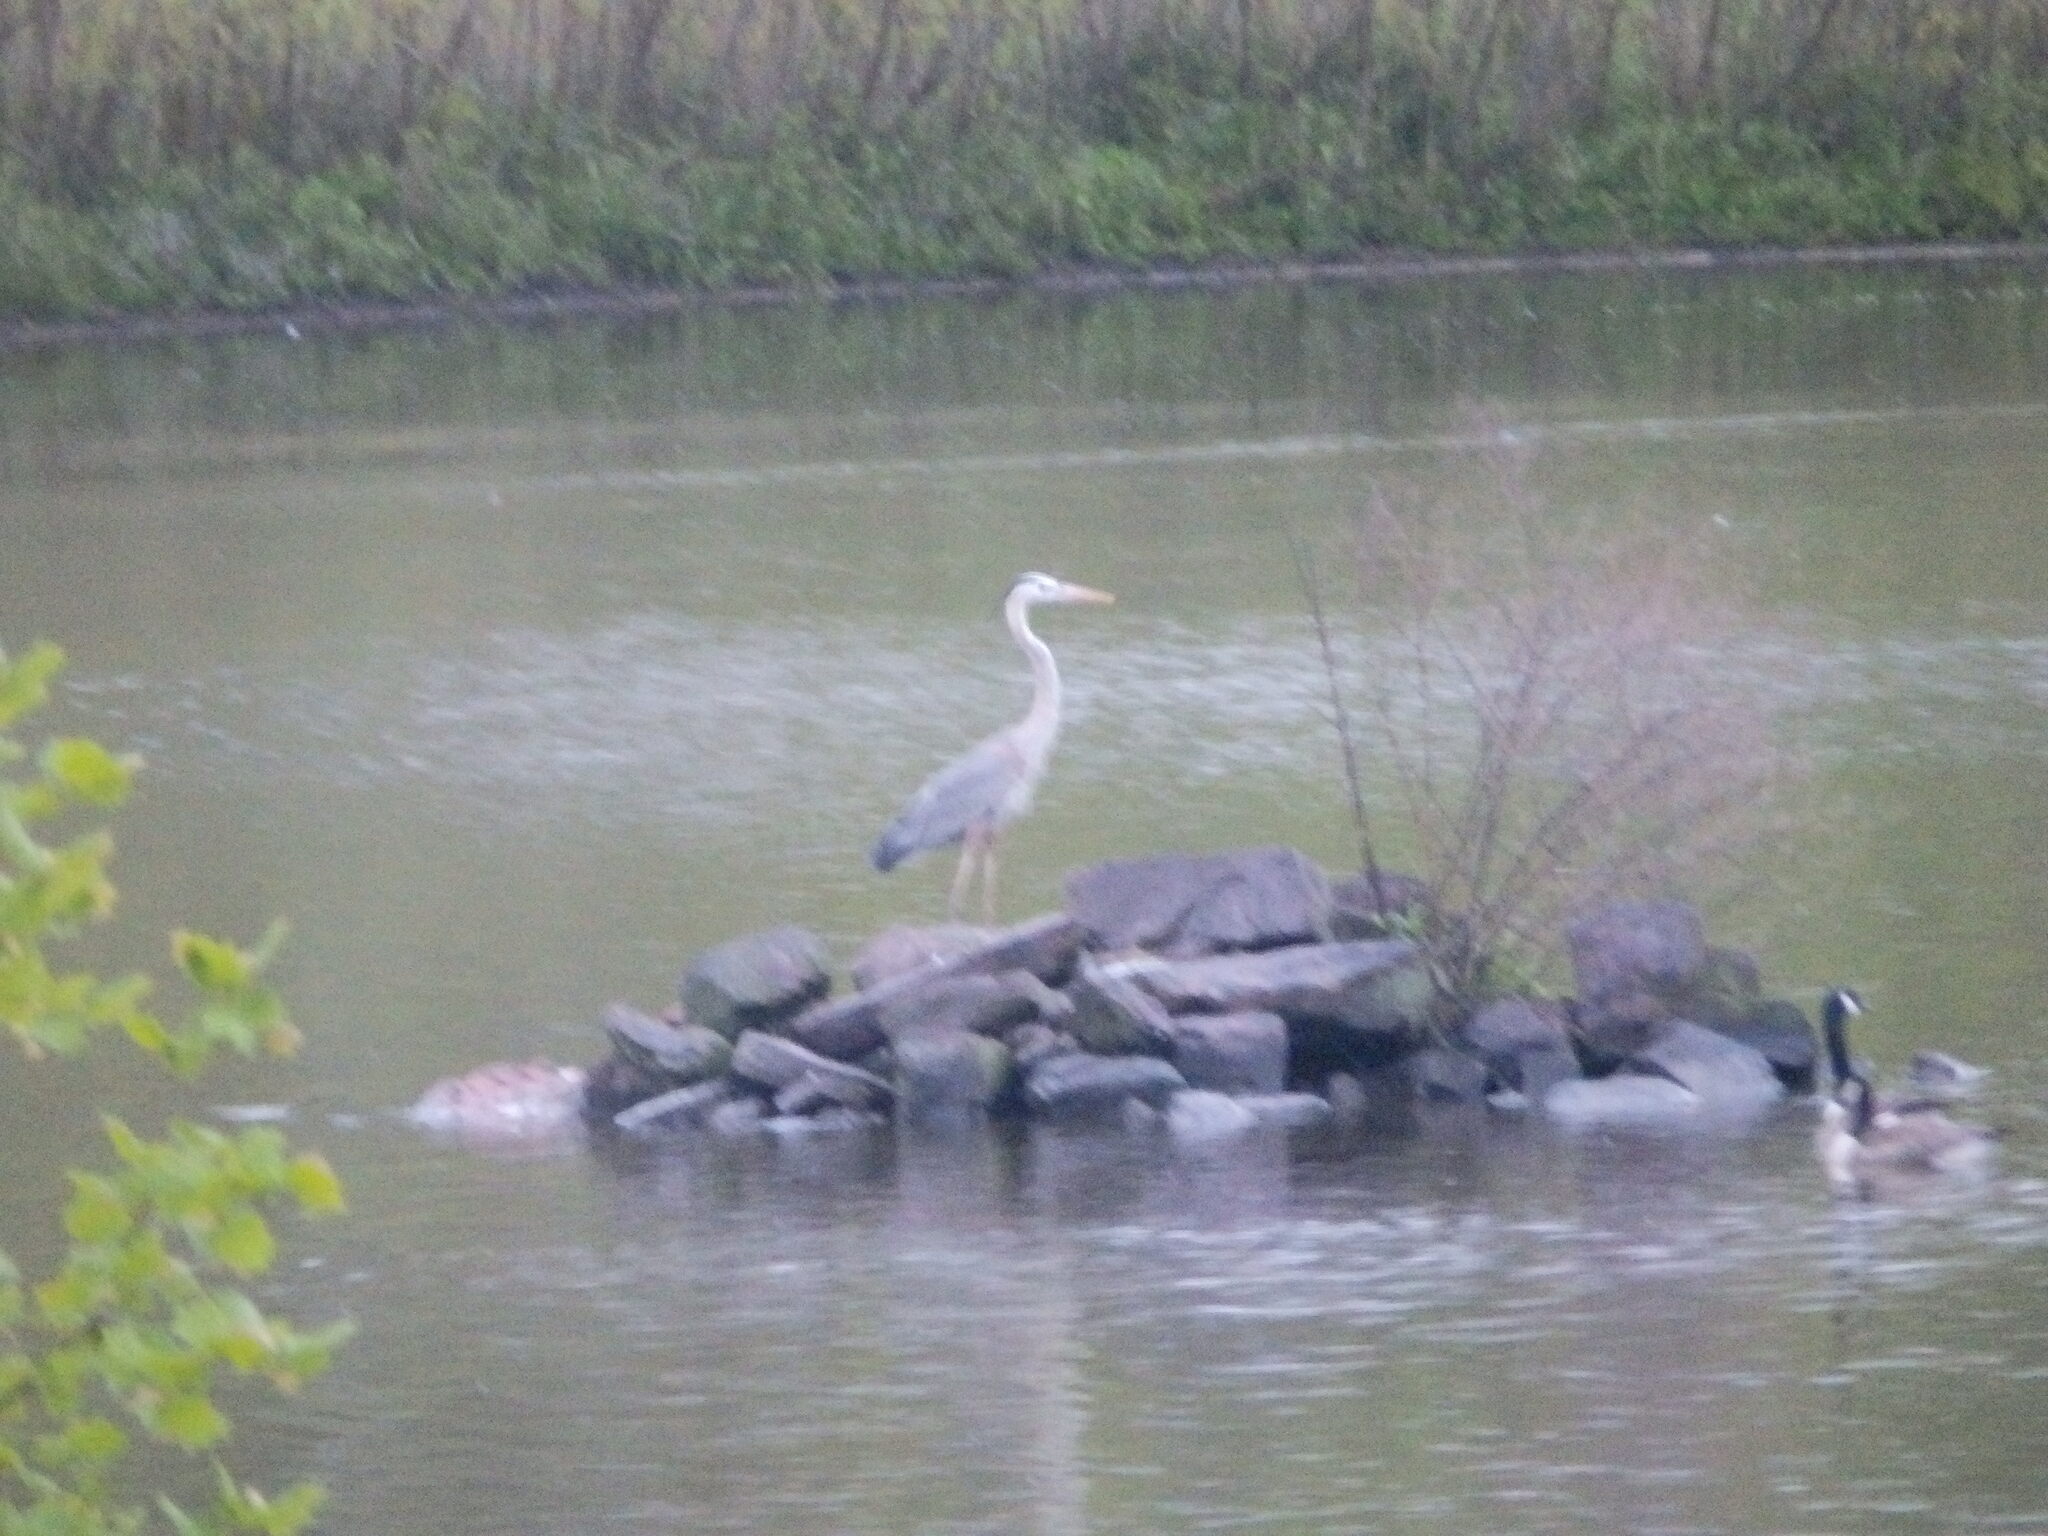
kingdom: Animalia
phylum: Chordata
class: Aves
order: Pelecaniformes
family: Ardeidae
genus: Ardea
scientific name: Ardea herodias
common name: Great blue heron
